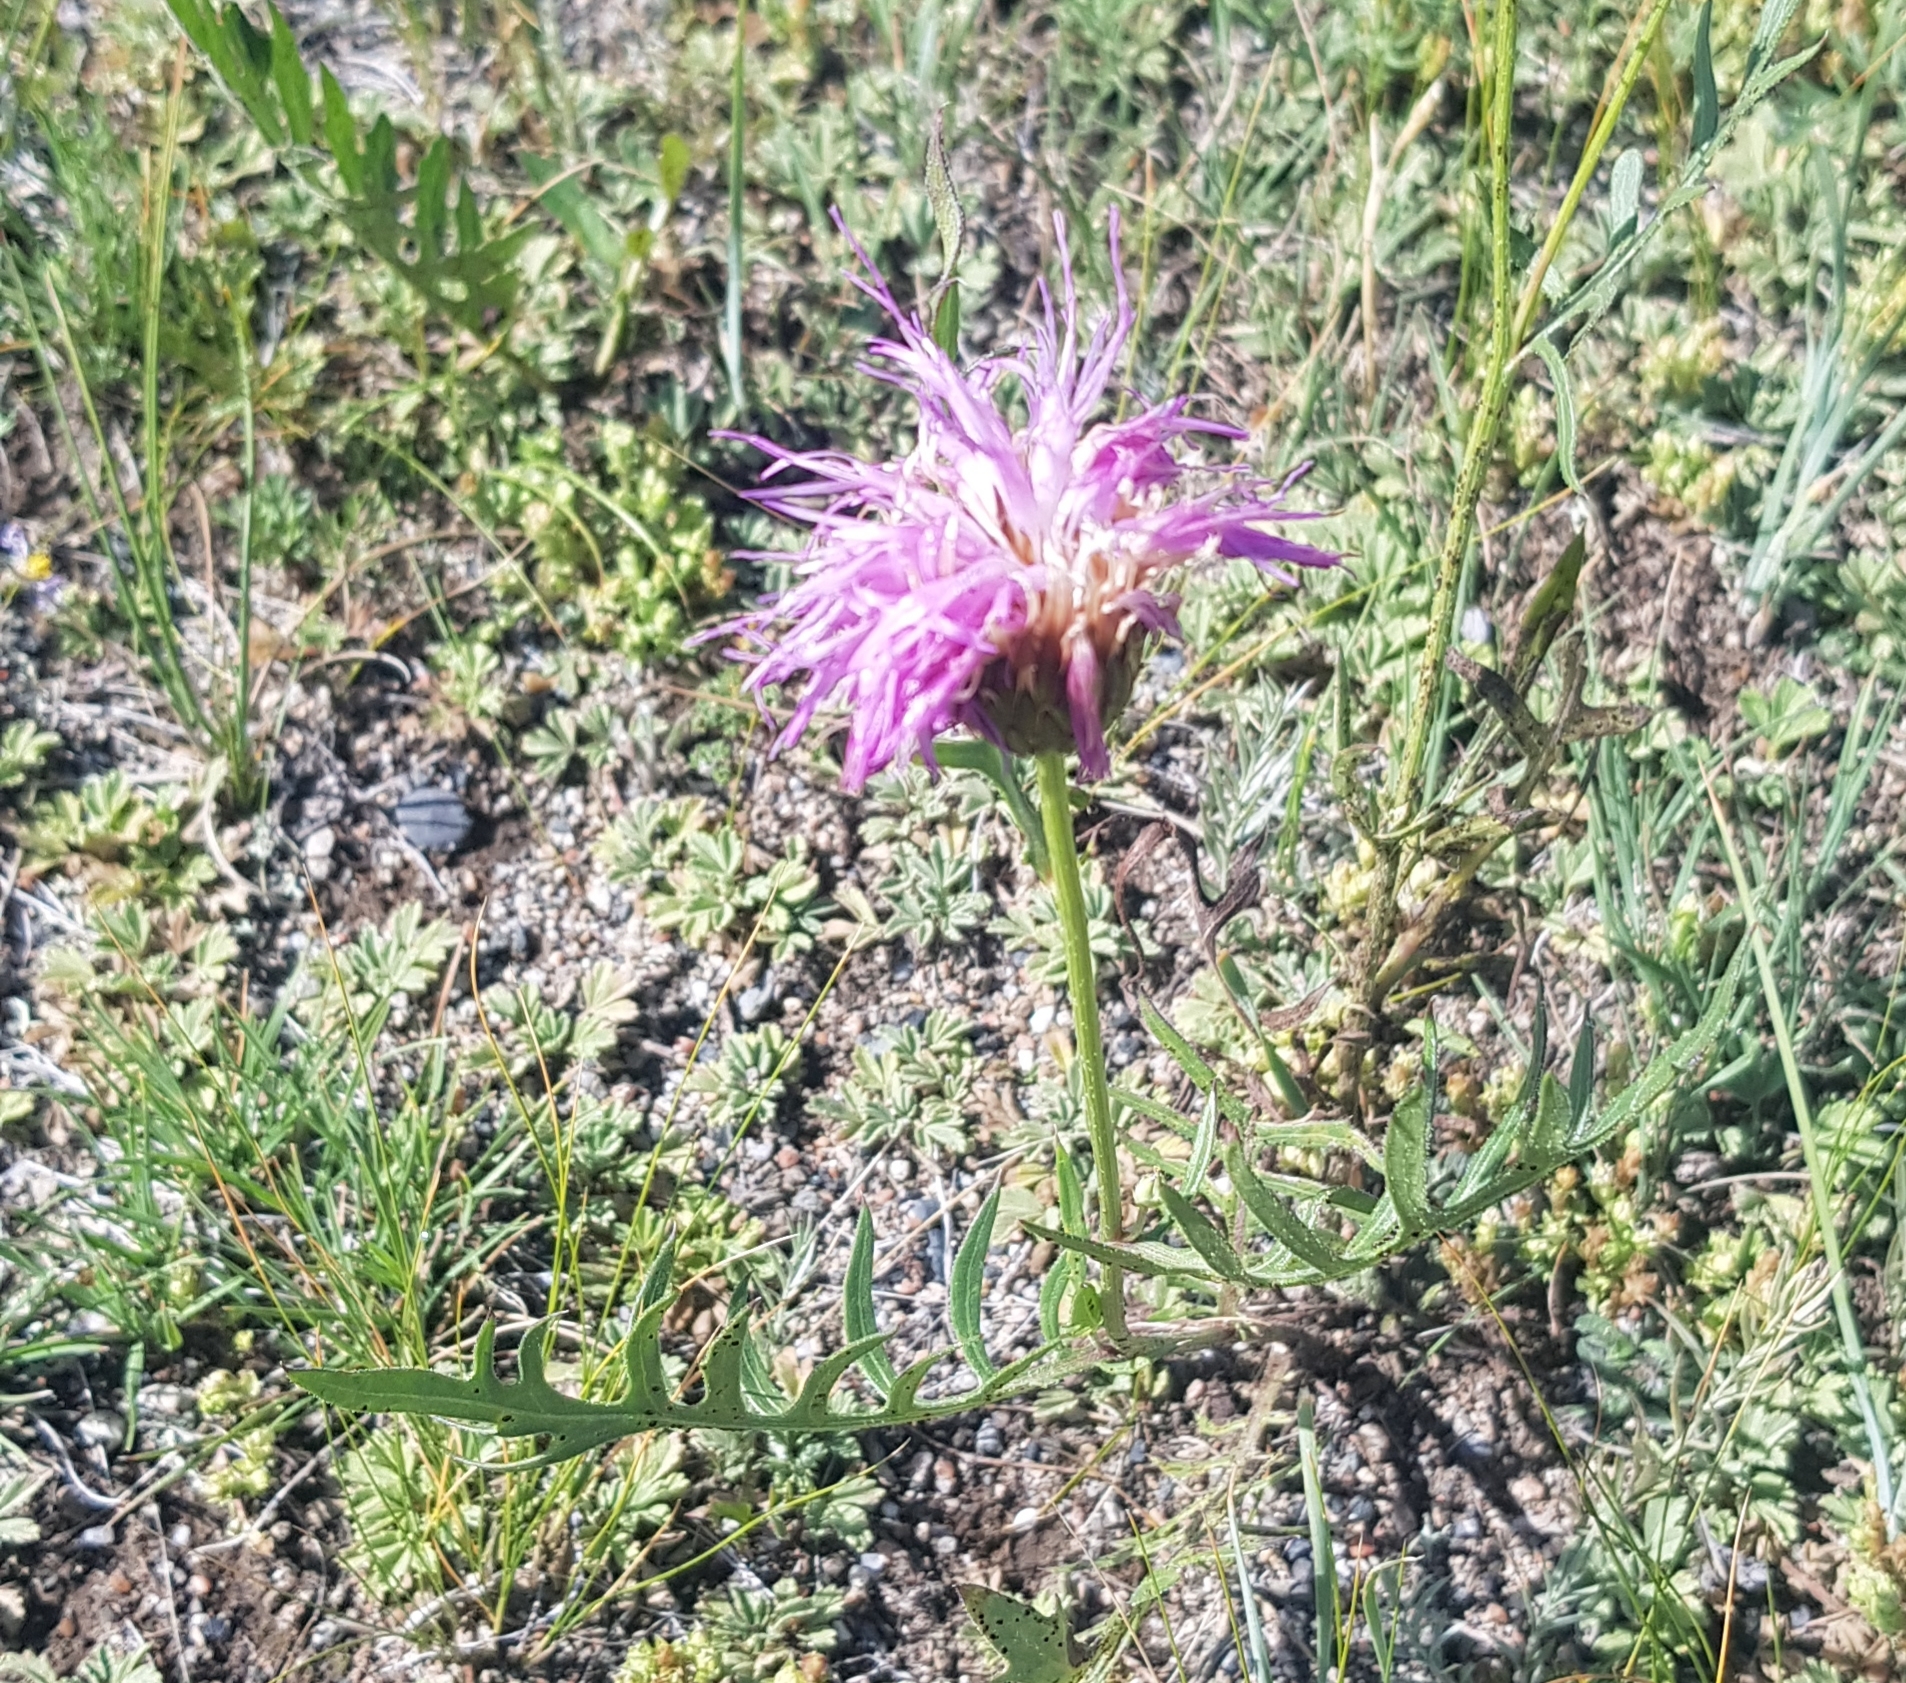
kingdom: Plantae
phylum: Tracheophyta
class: Magnoliopsida
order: Asterales
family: Asteraceae
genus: Klasea
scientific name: Klasea centauroides
